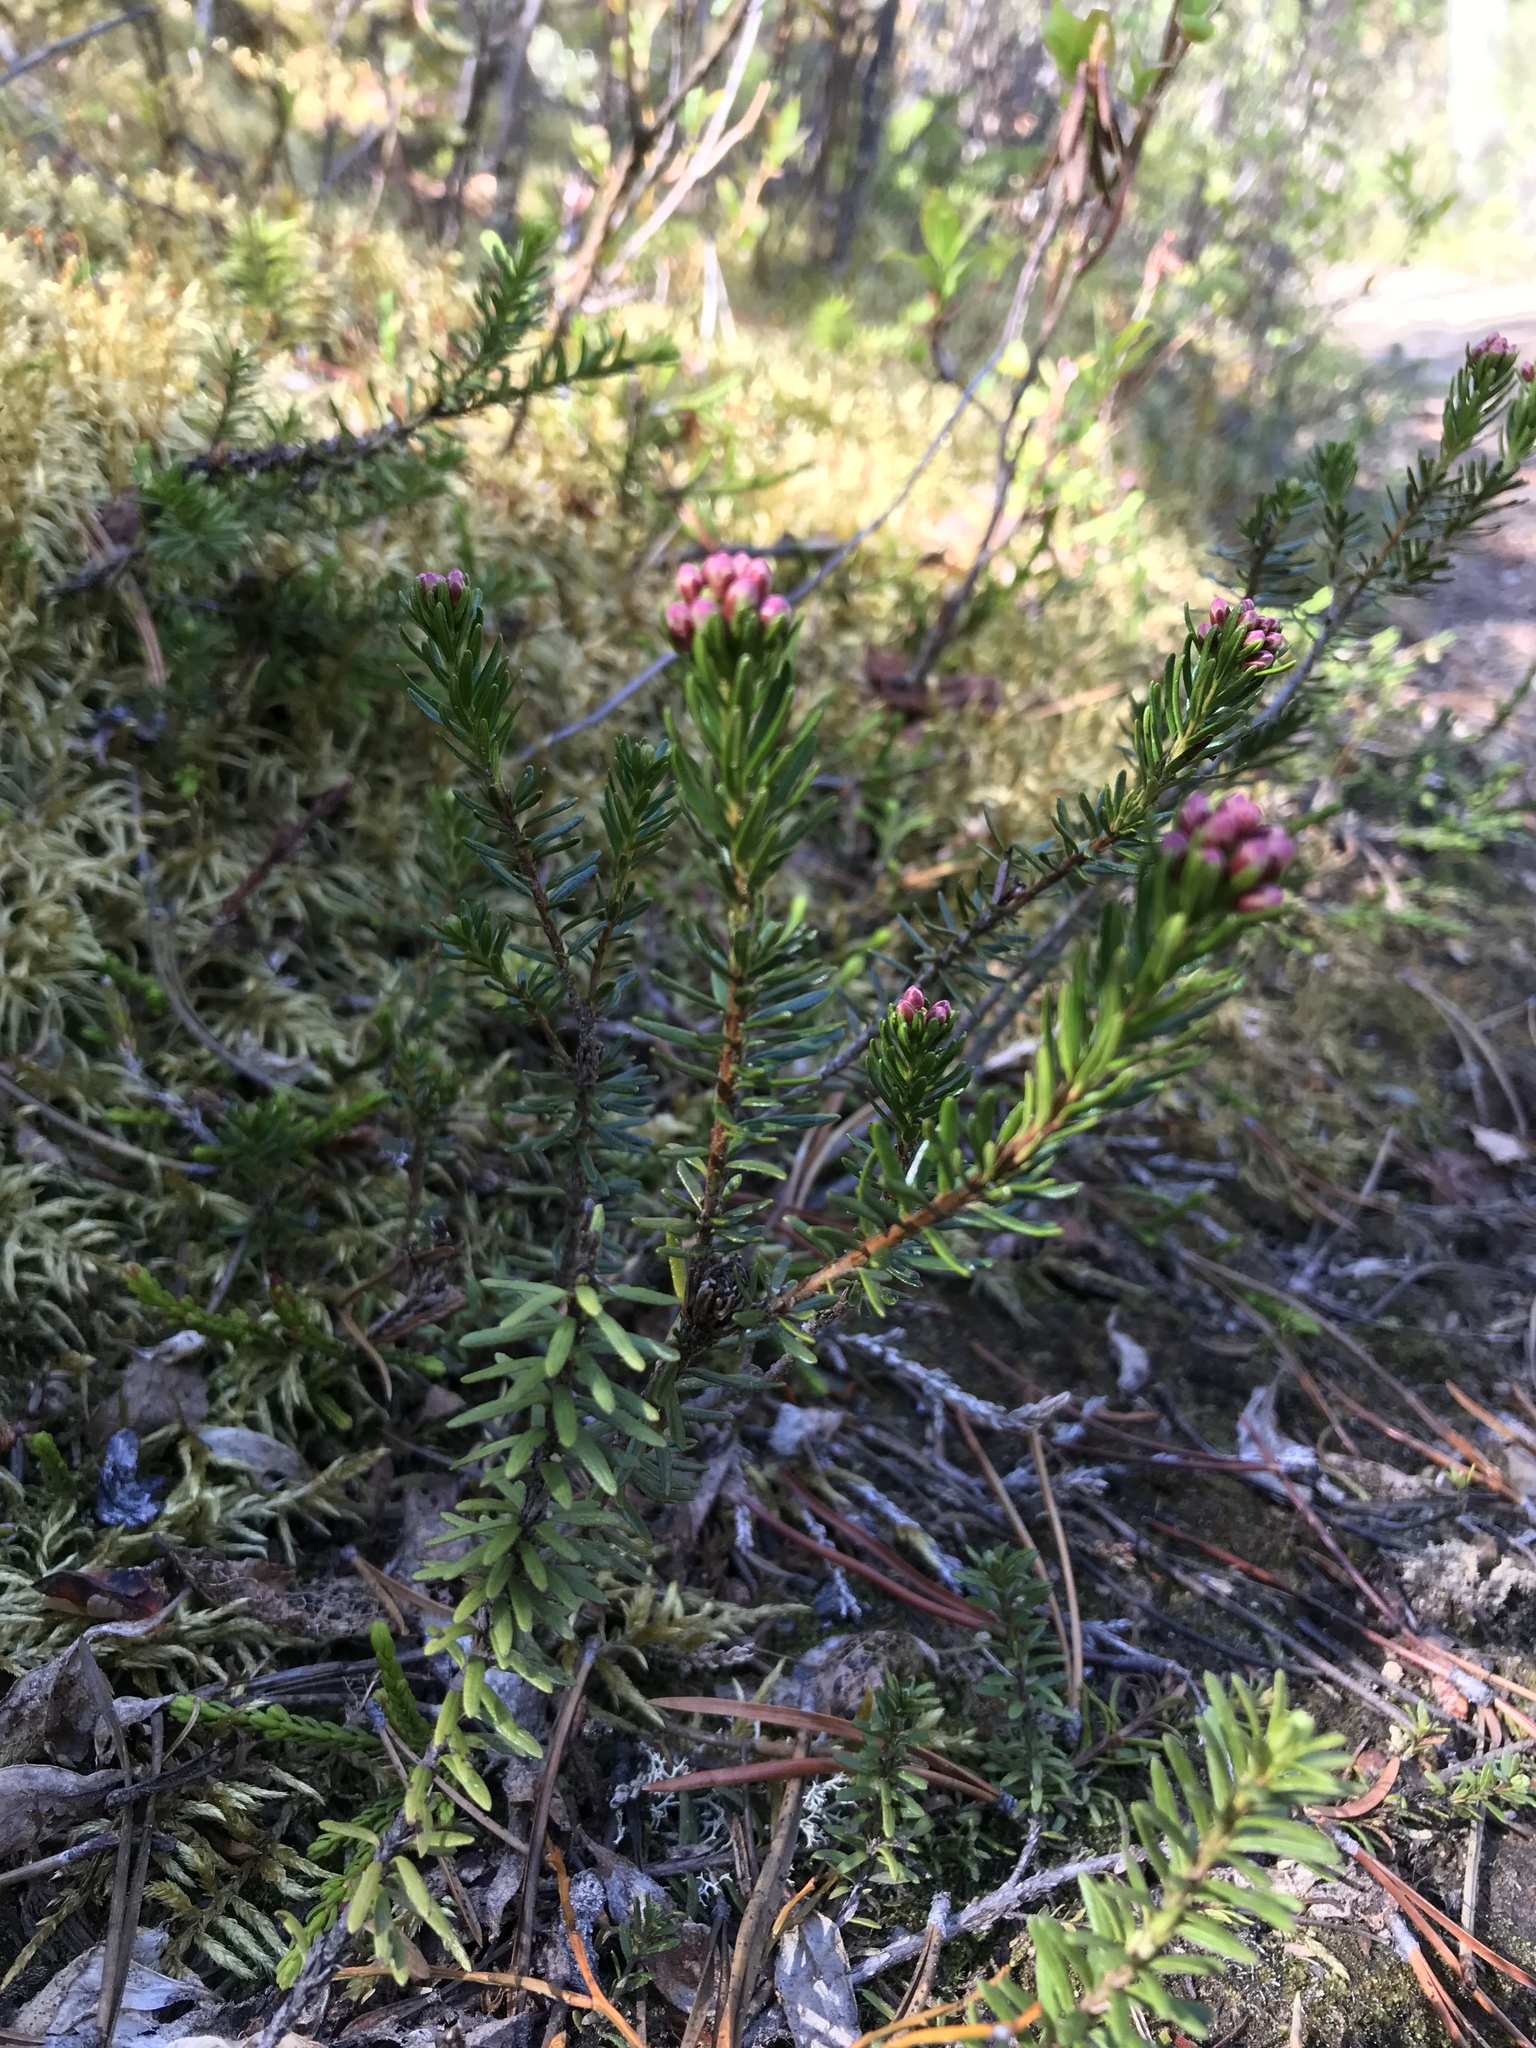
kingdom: Plantae
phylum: Tracheophyta
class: Magnoliopsida
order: Ericales
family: Ericaceae
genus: Phyllodoce
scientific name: Phyllodoce empetriformis
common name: Pink mountain heather
